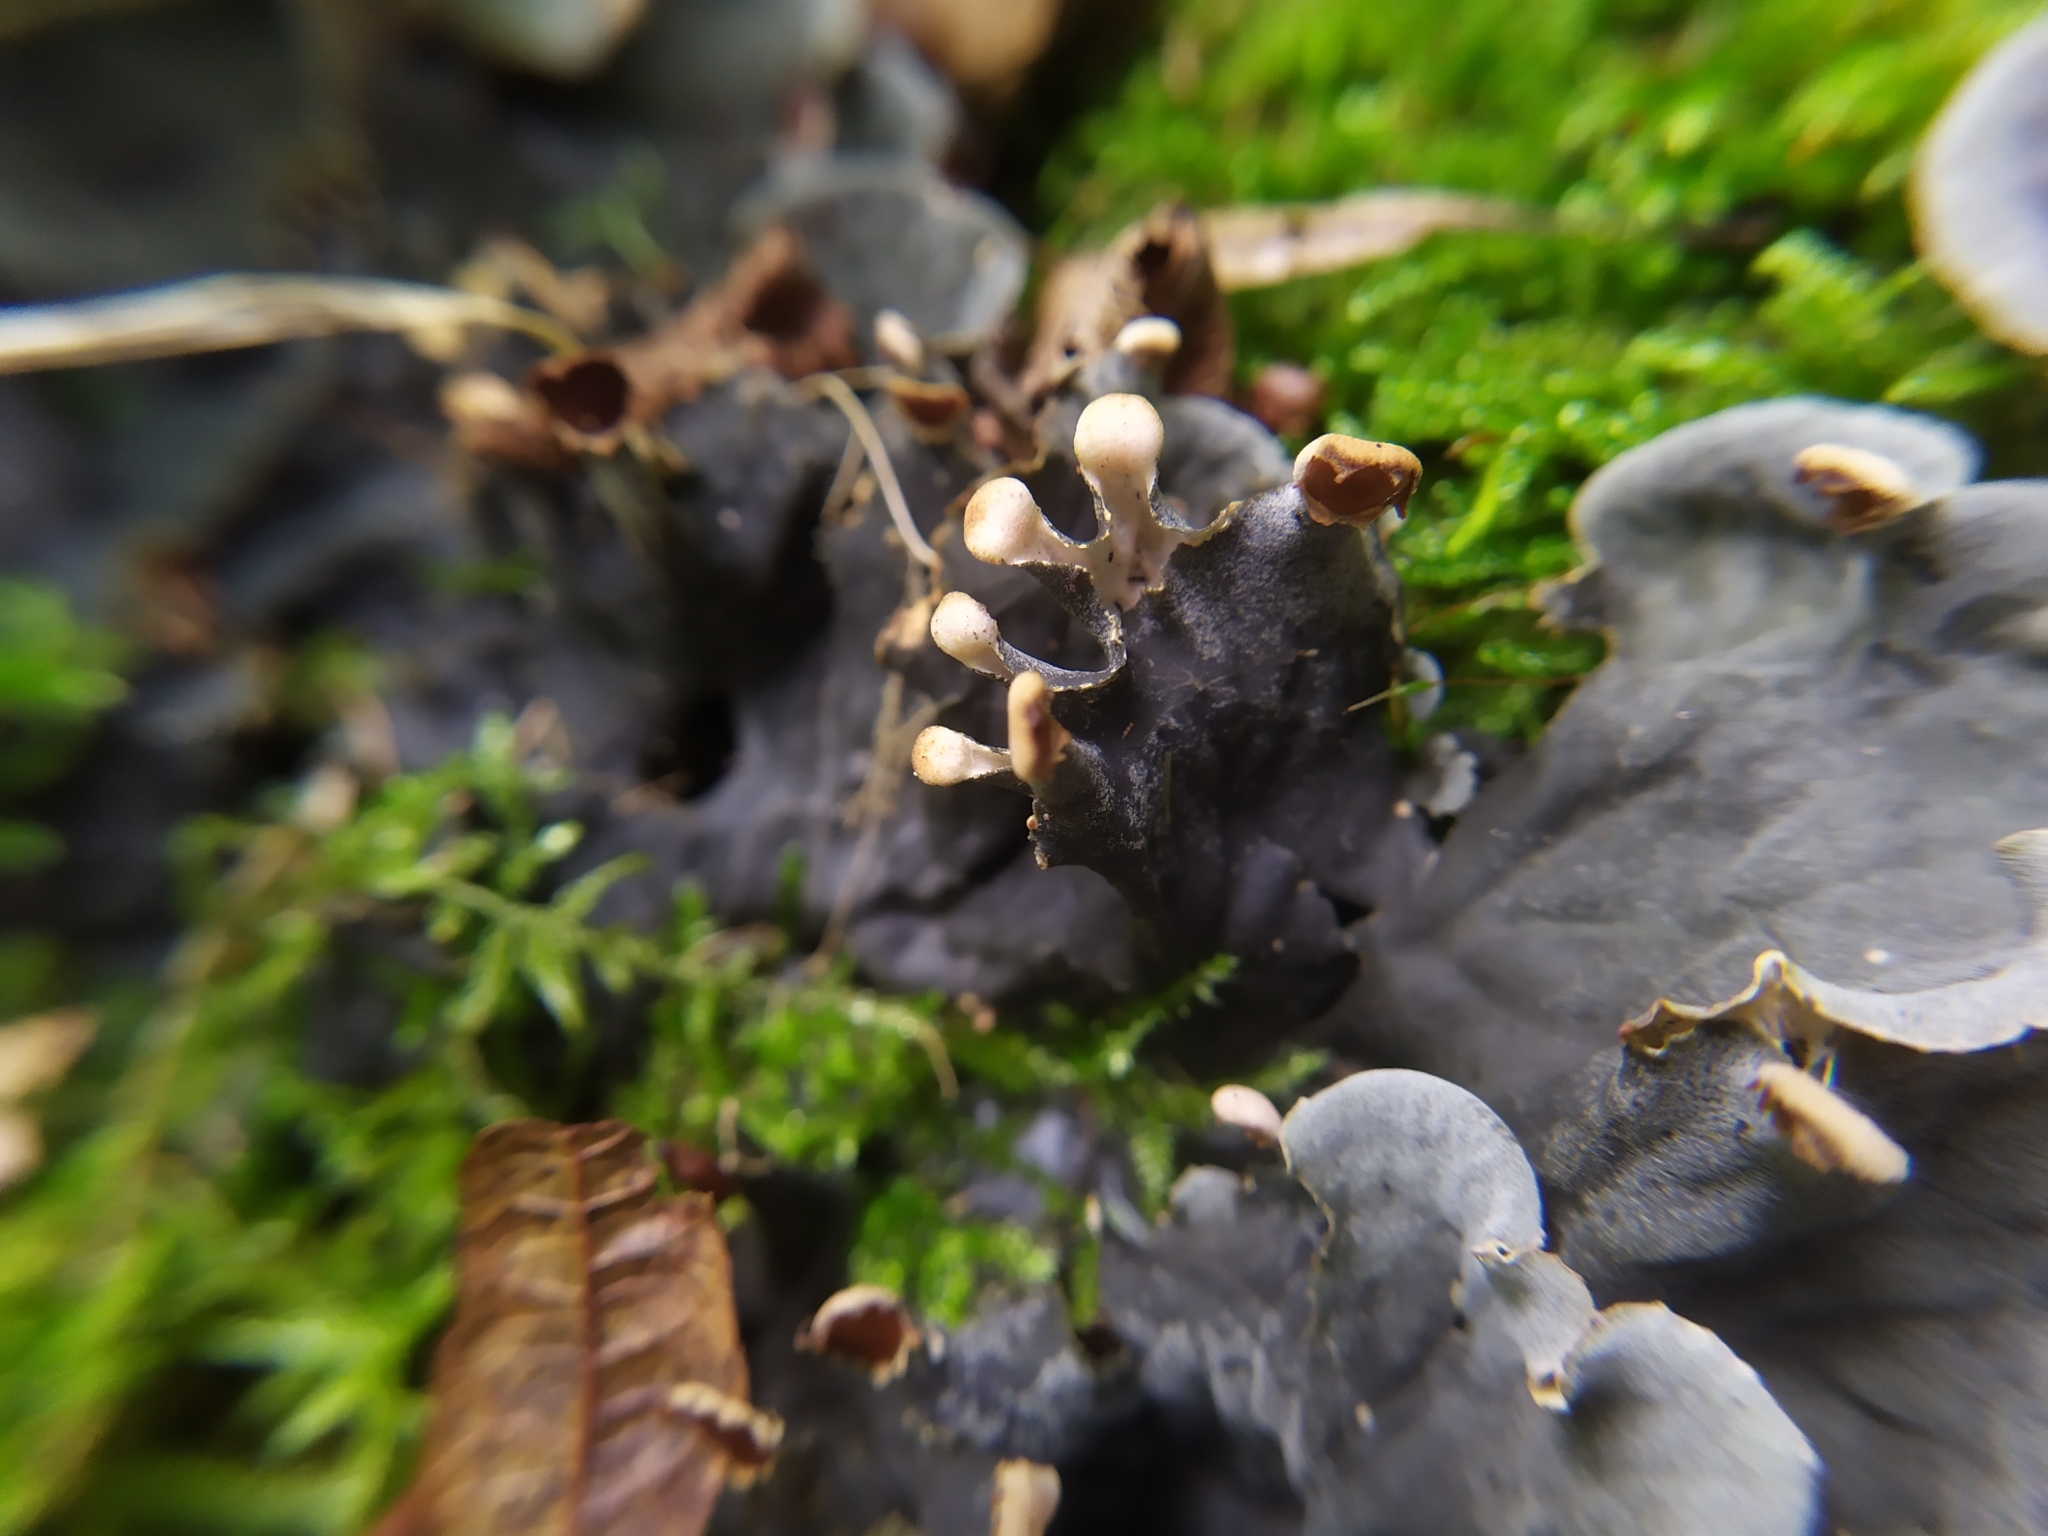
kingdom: Fungi
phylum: Ascomycota
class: Lecanoromycetes
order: Peltigerales
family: Peltigeraceae
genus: Peltigera
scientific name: Peltigera praetextata
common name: Scaly dog-lichen
